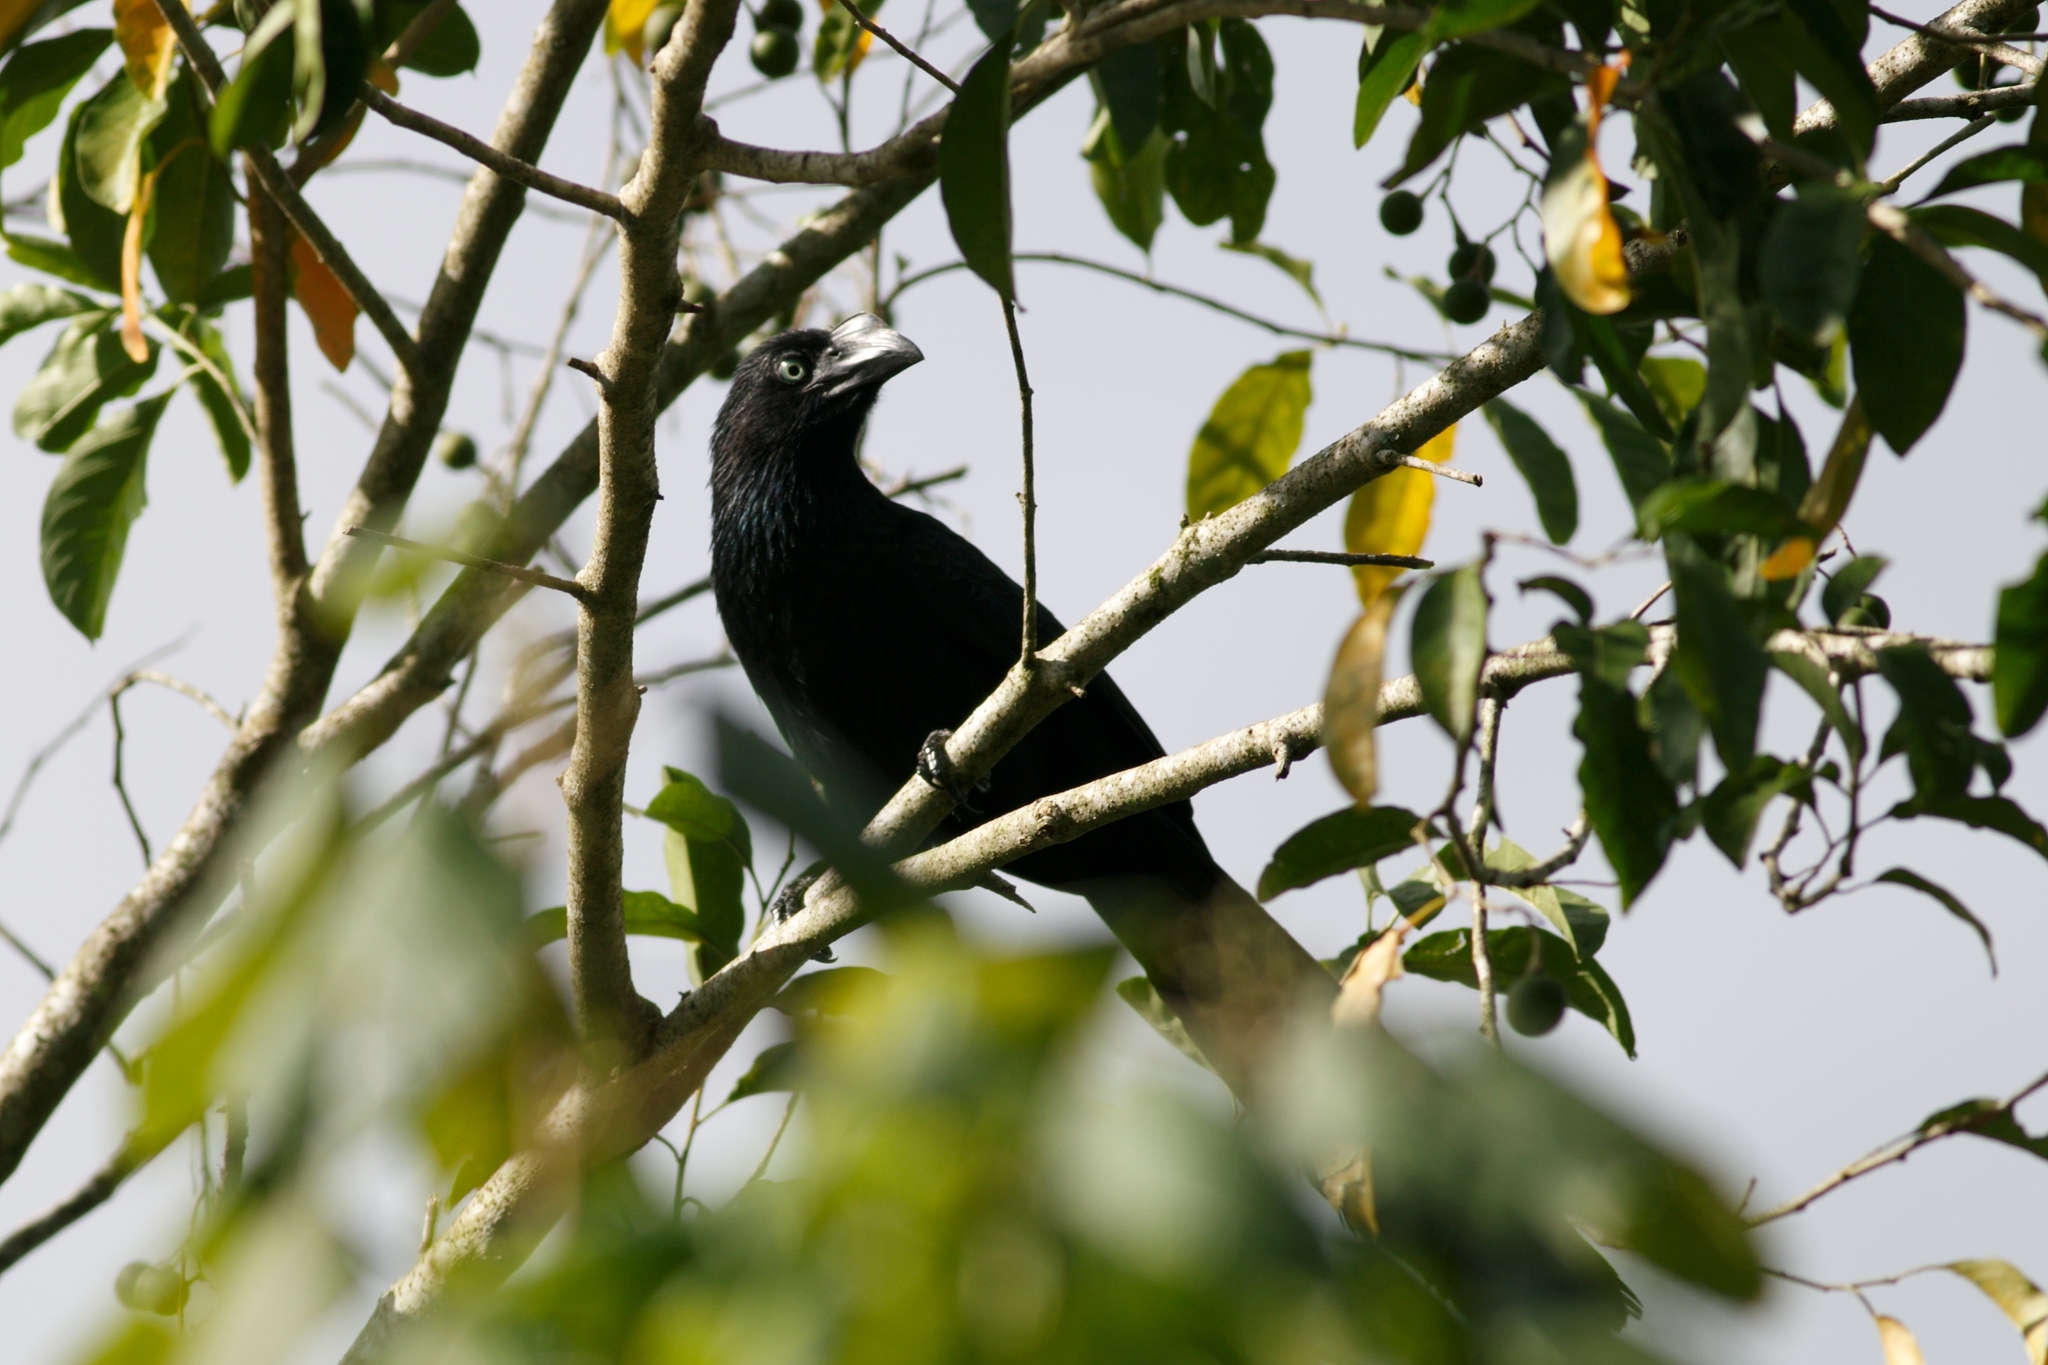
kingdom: Animalia
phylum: Chordata
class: Aves
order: Cuculiformes
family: Cuculidae
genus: Crotophaga
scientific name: Crotophaga major
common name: Greater ani
